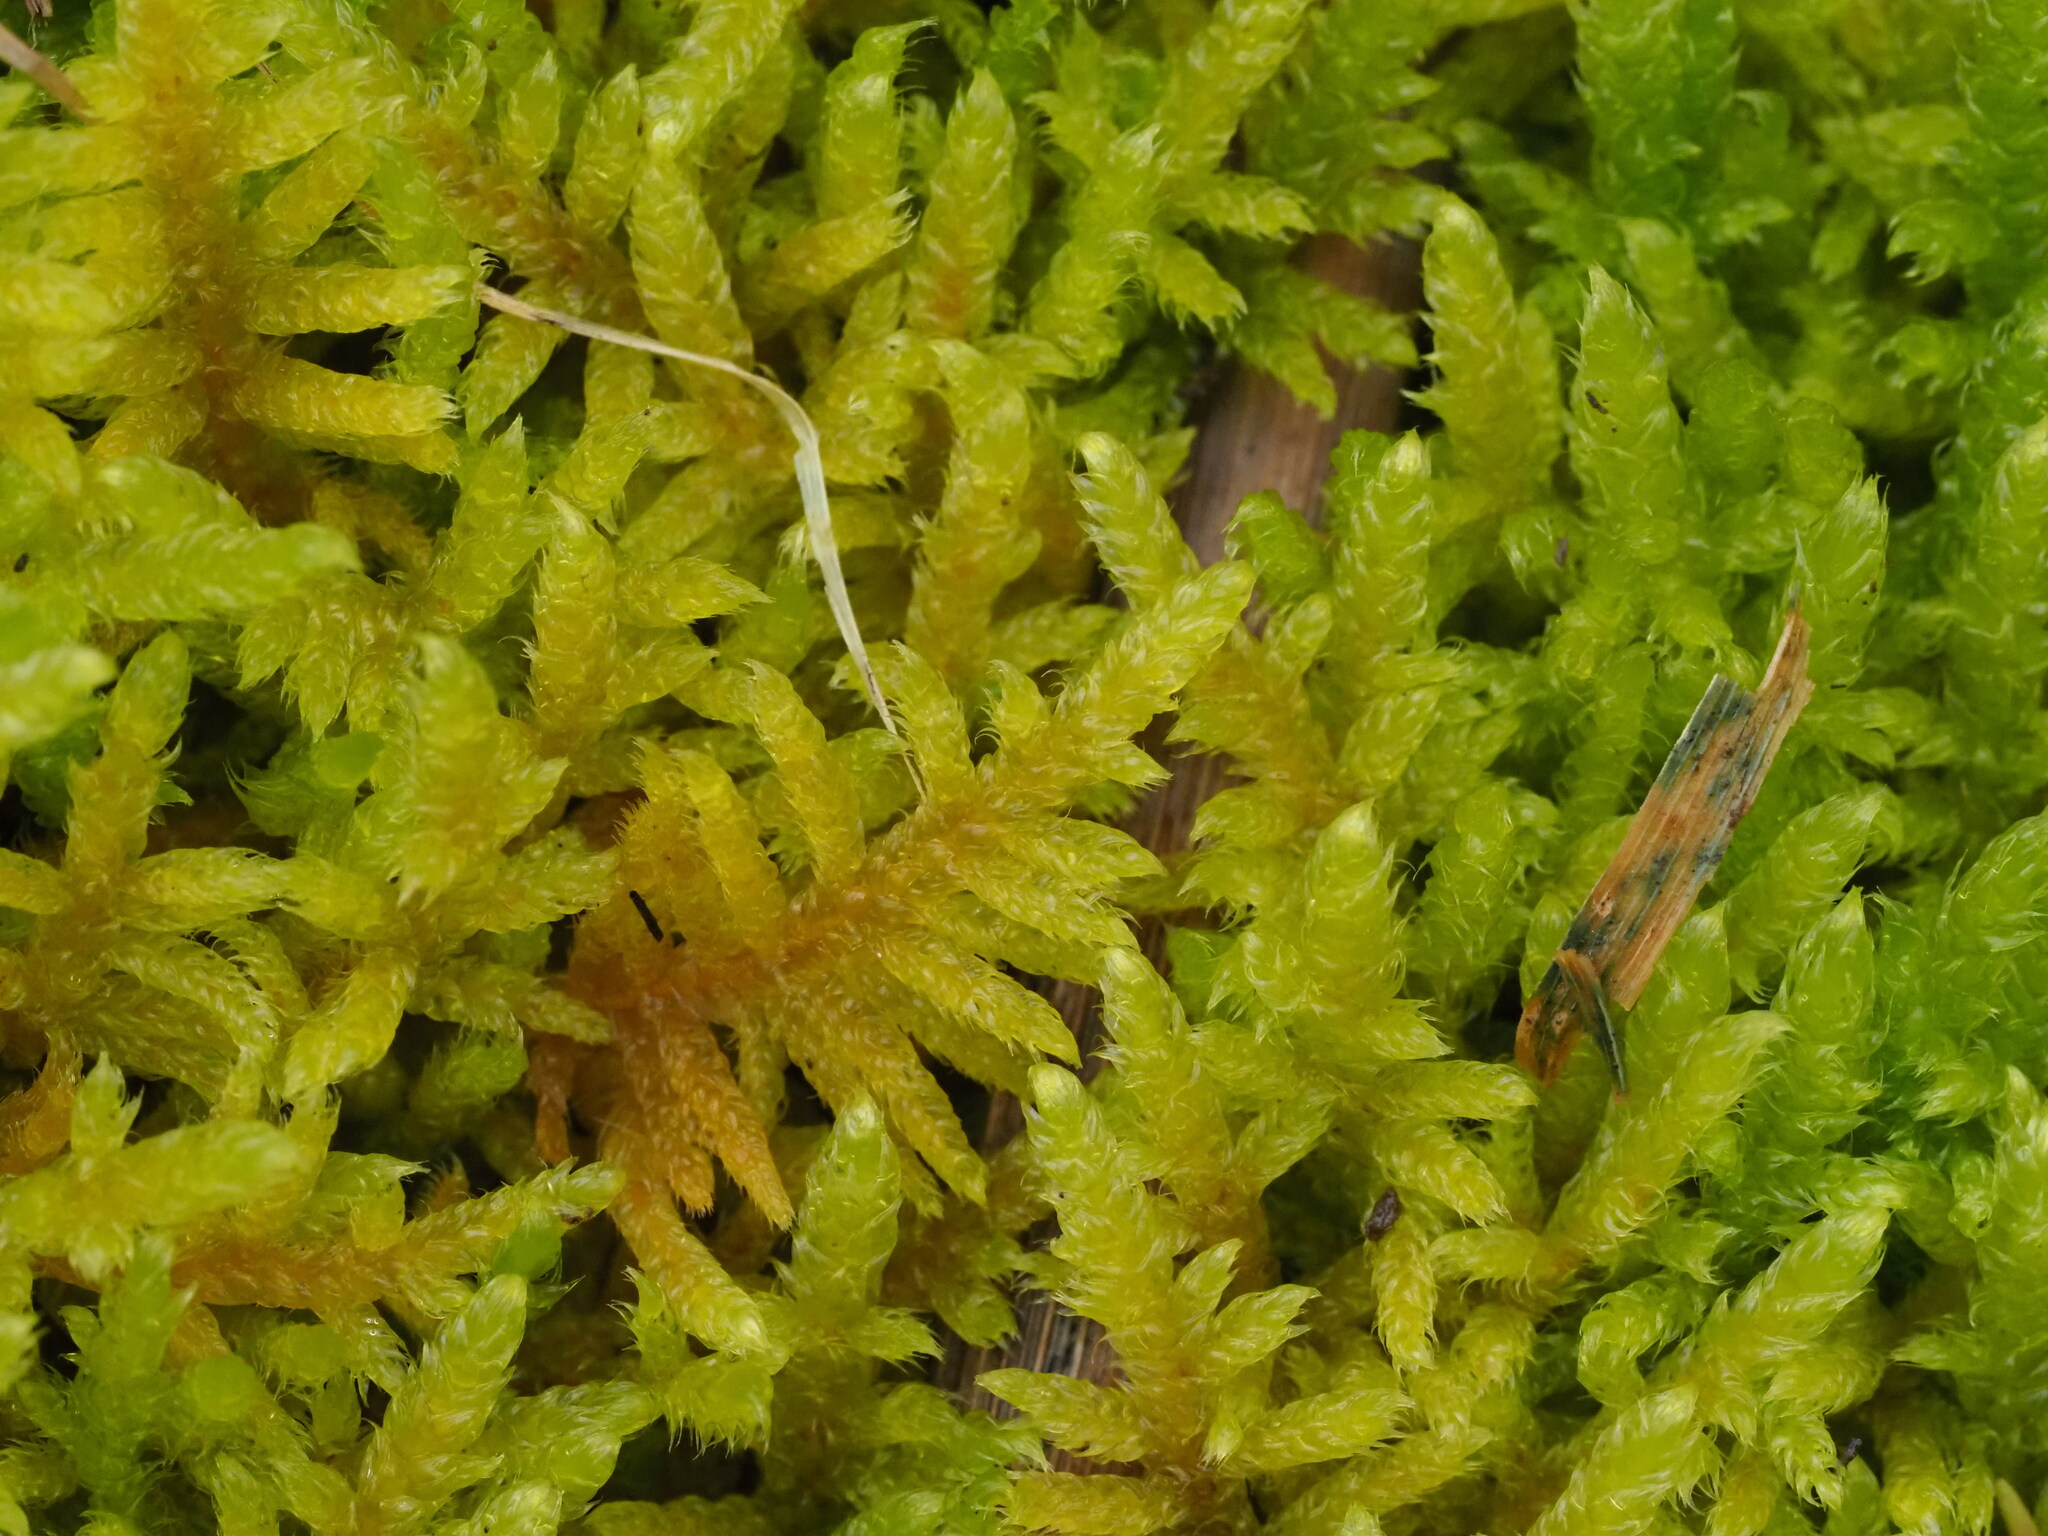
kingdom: Plantae
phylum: Bryophyta
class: Bryopsida
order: Hypnales
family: Hypnaceae
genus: Hypnum
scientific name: Hypnum plumaeforme
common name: Cypress-leaved plaitmoss
